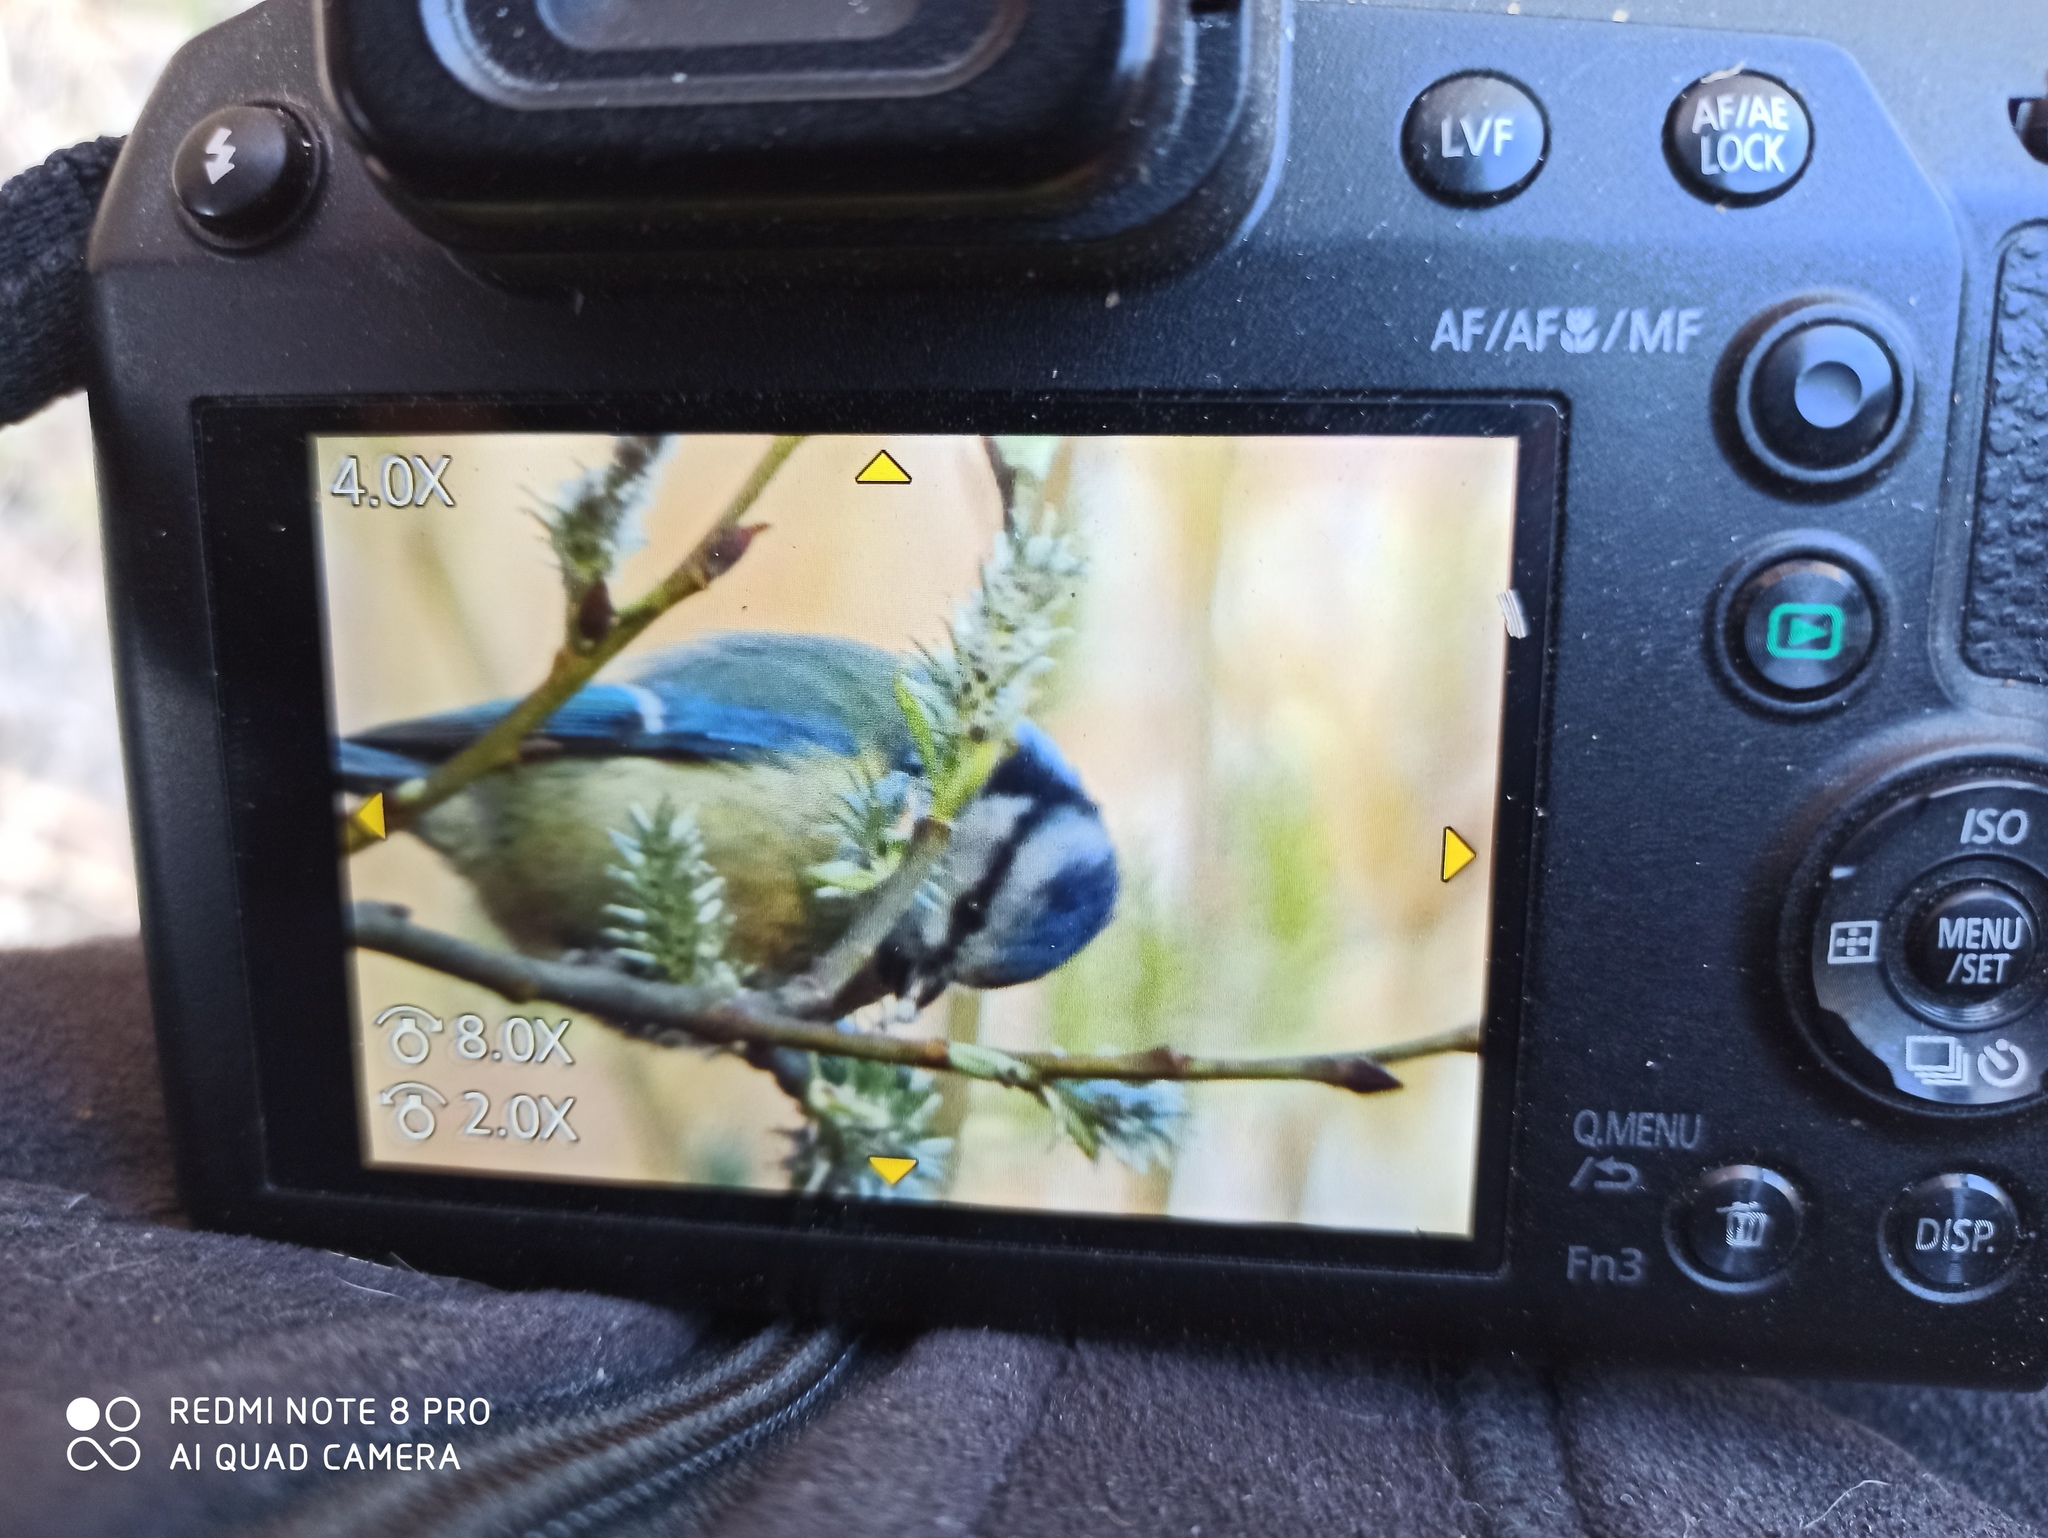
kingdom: Animalia
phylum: Chordata
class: Aves
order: Passeriformes
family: Paridae
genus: Cyanistes
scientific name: Cyanistes caeruleus
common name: Eurasian blue tit
